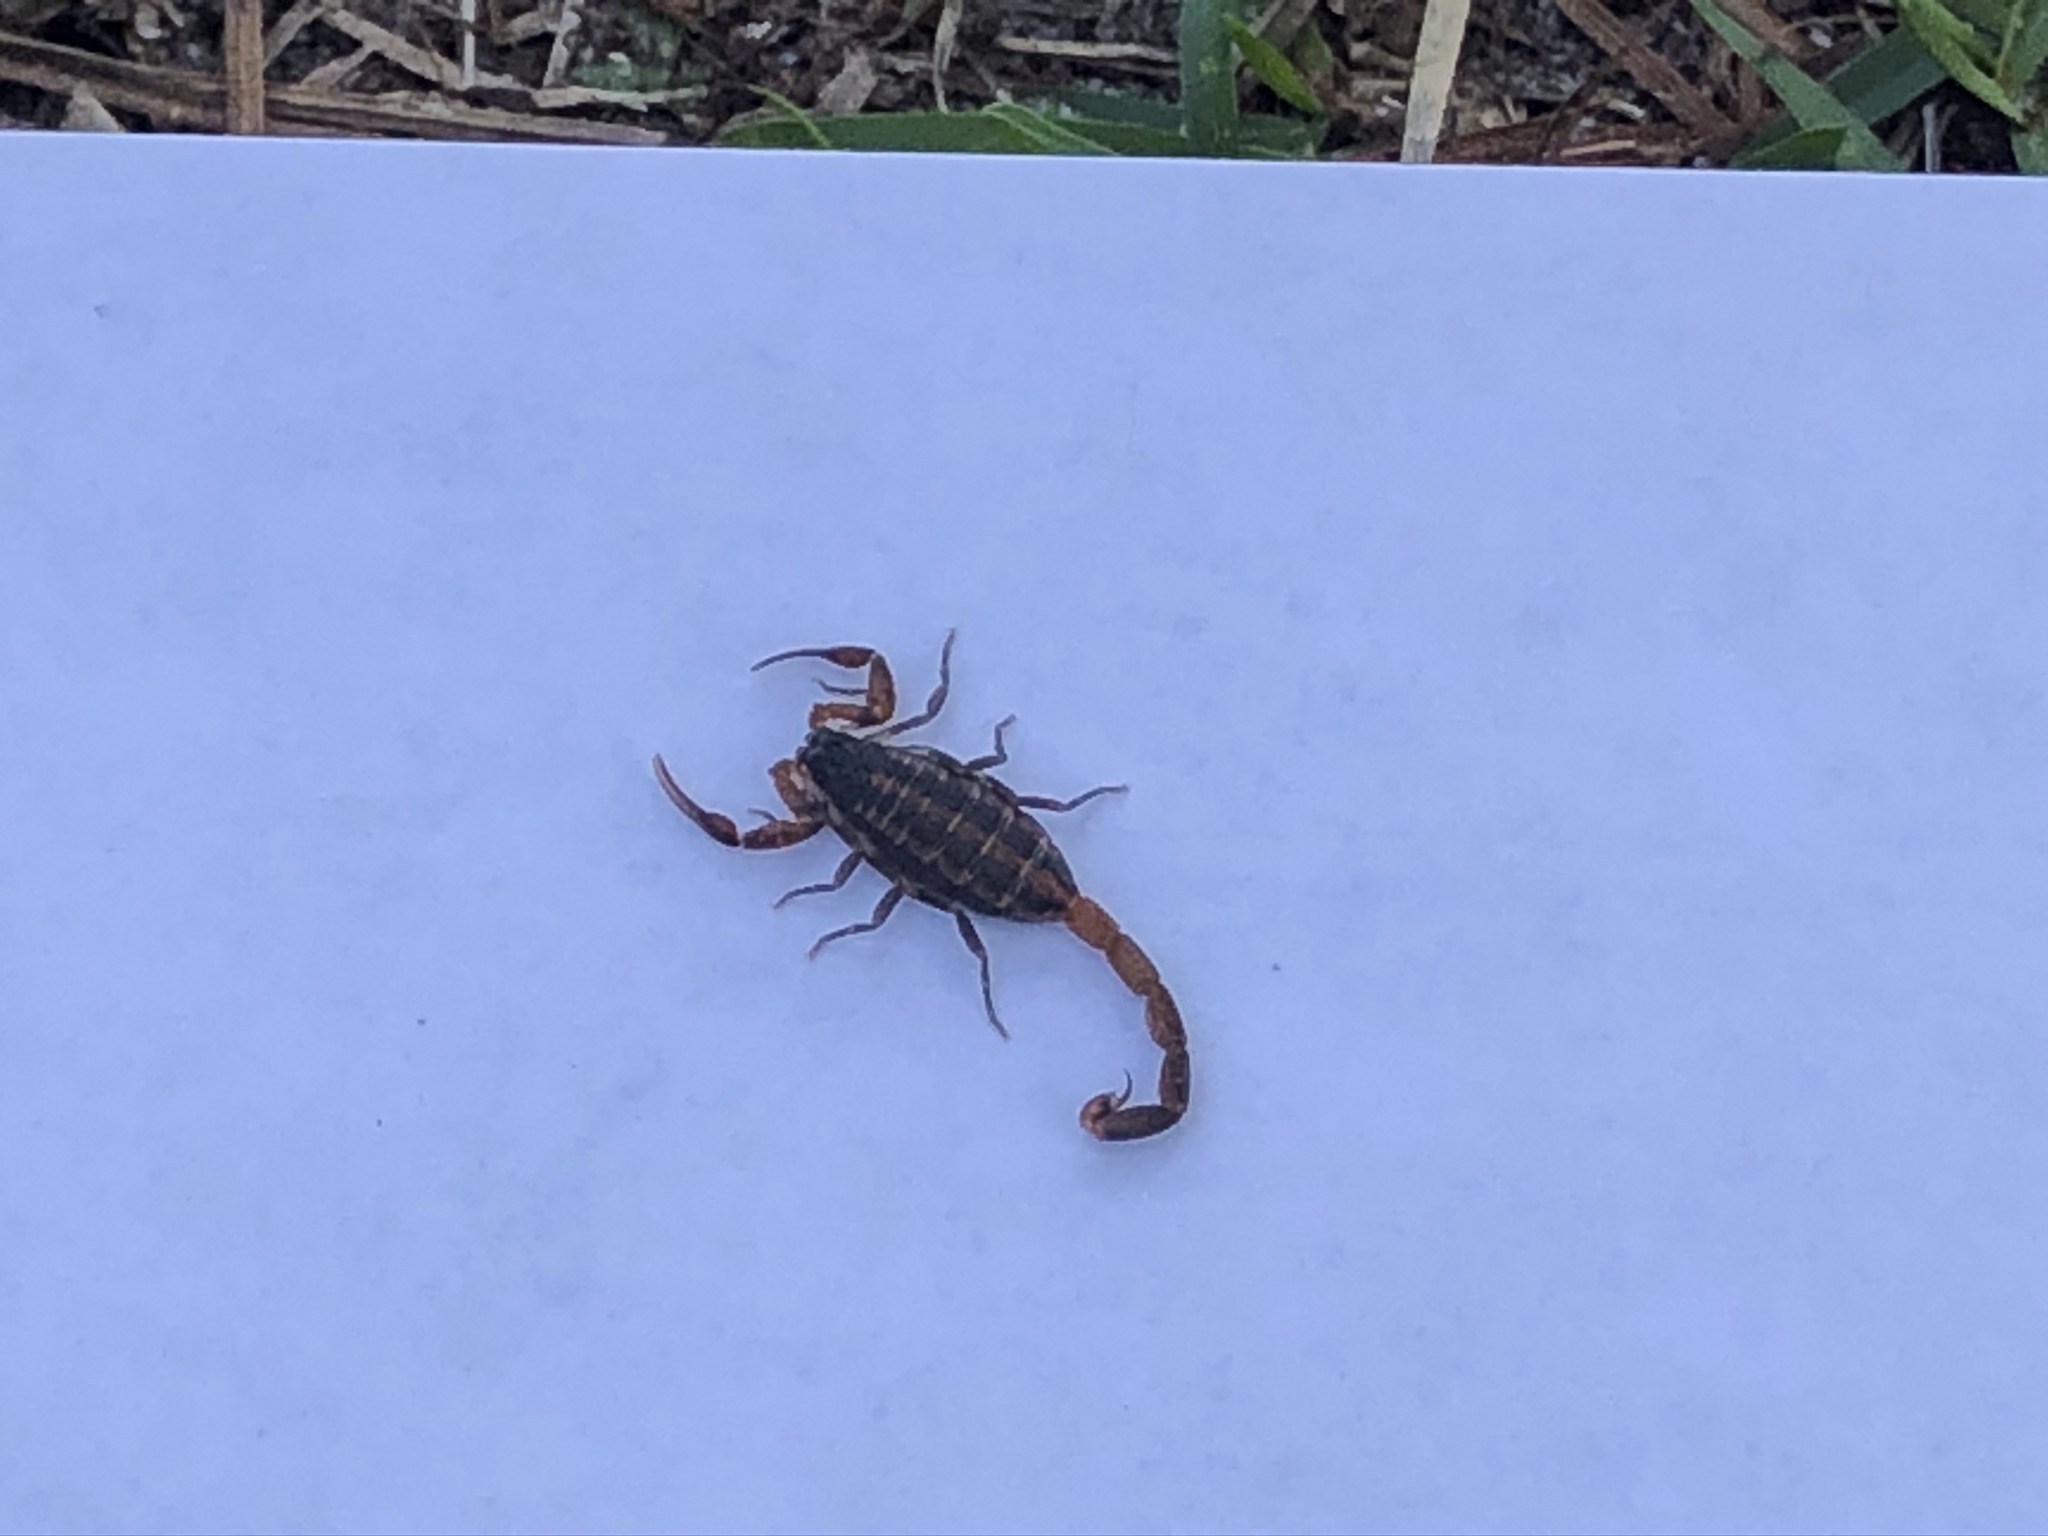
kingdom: Animalia
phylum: Arthropoda
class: Arachnida
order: Scorpiones
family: Buthidae
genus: Centruroides
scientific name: Centruroides hentzi
